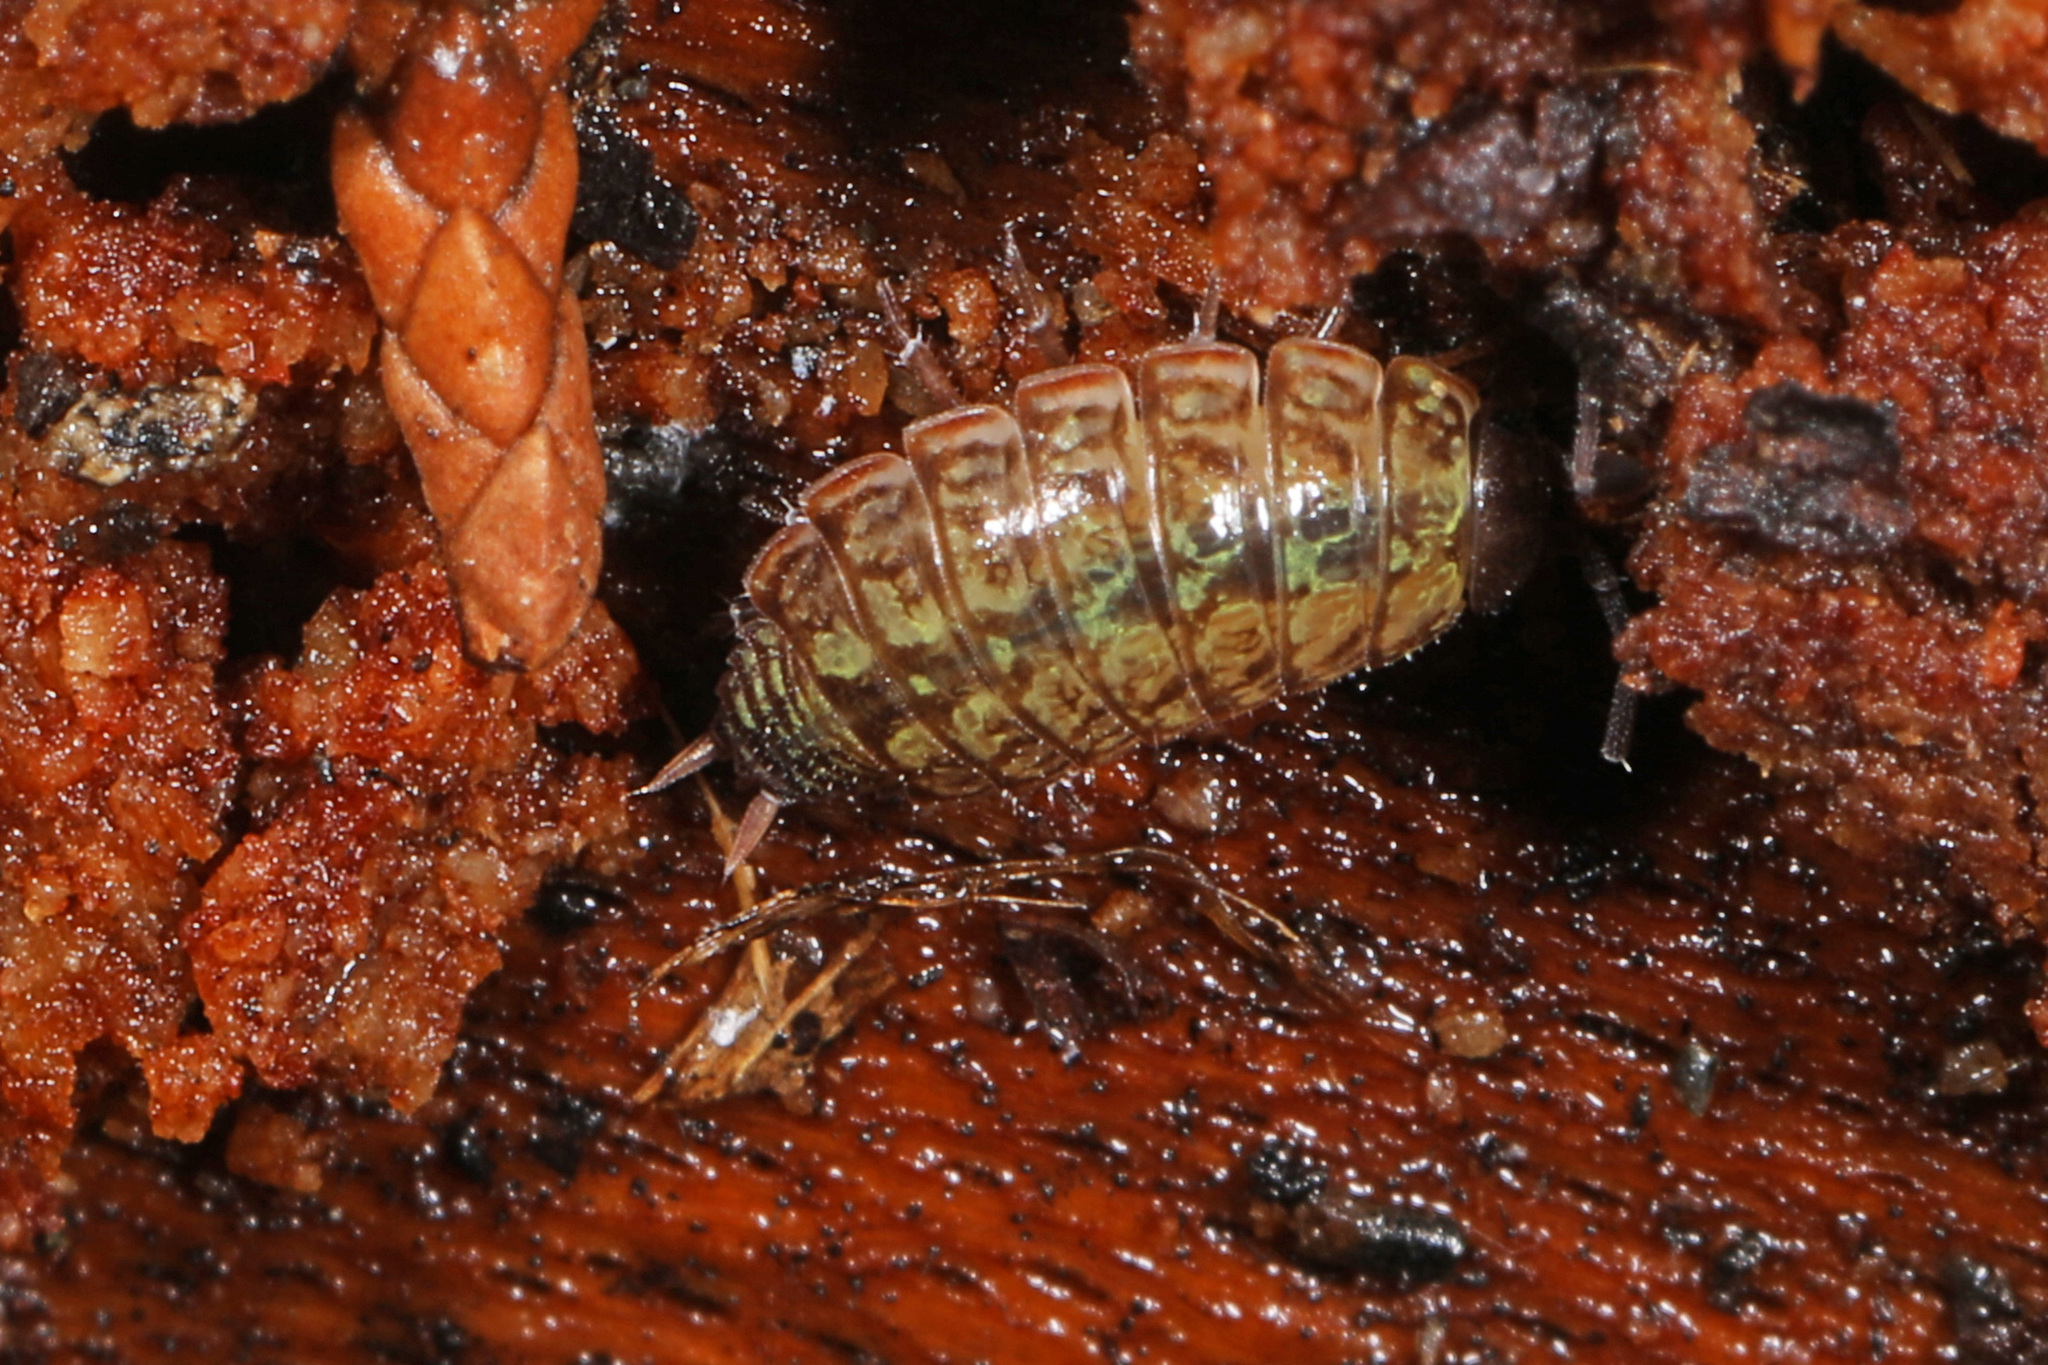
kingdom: Animalia
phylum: Arthropoda
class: Malacostraca
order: Isopoda
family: Philosciidae
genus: Philoscia
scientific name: Philoscia muscorum
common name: Common striped woodlouse
